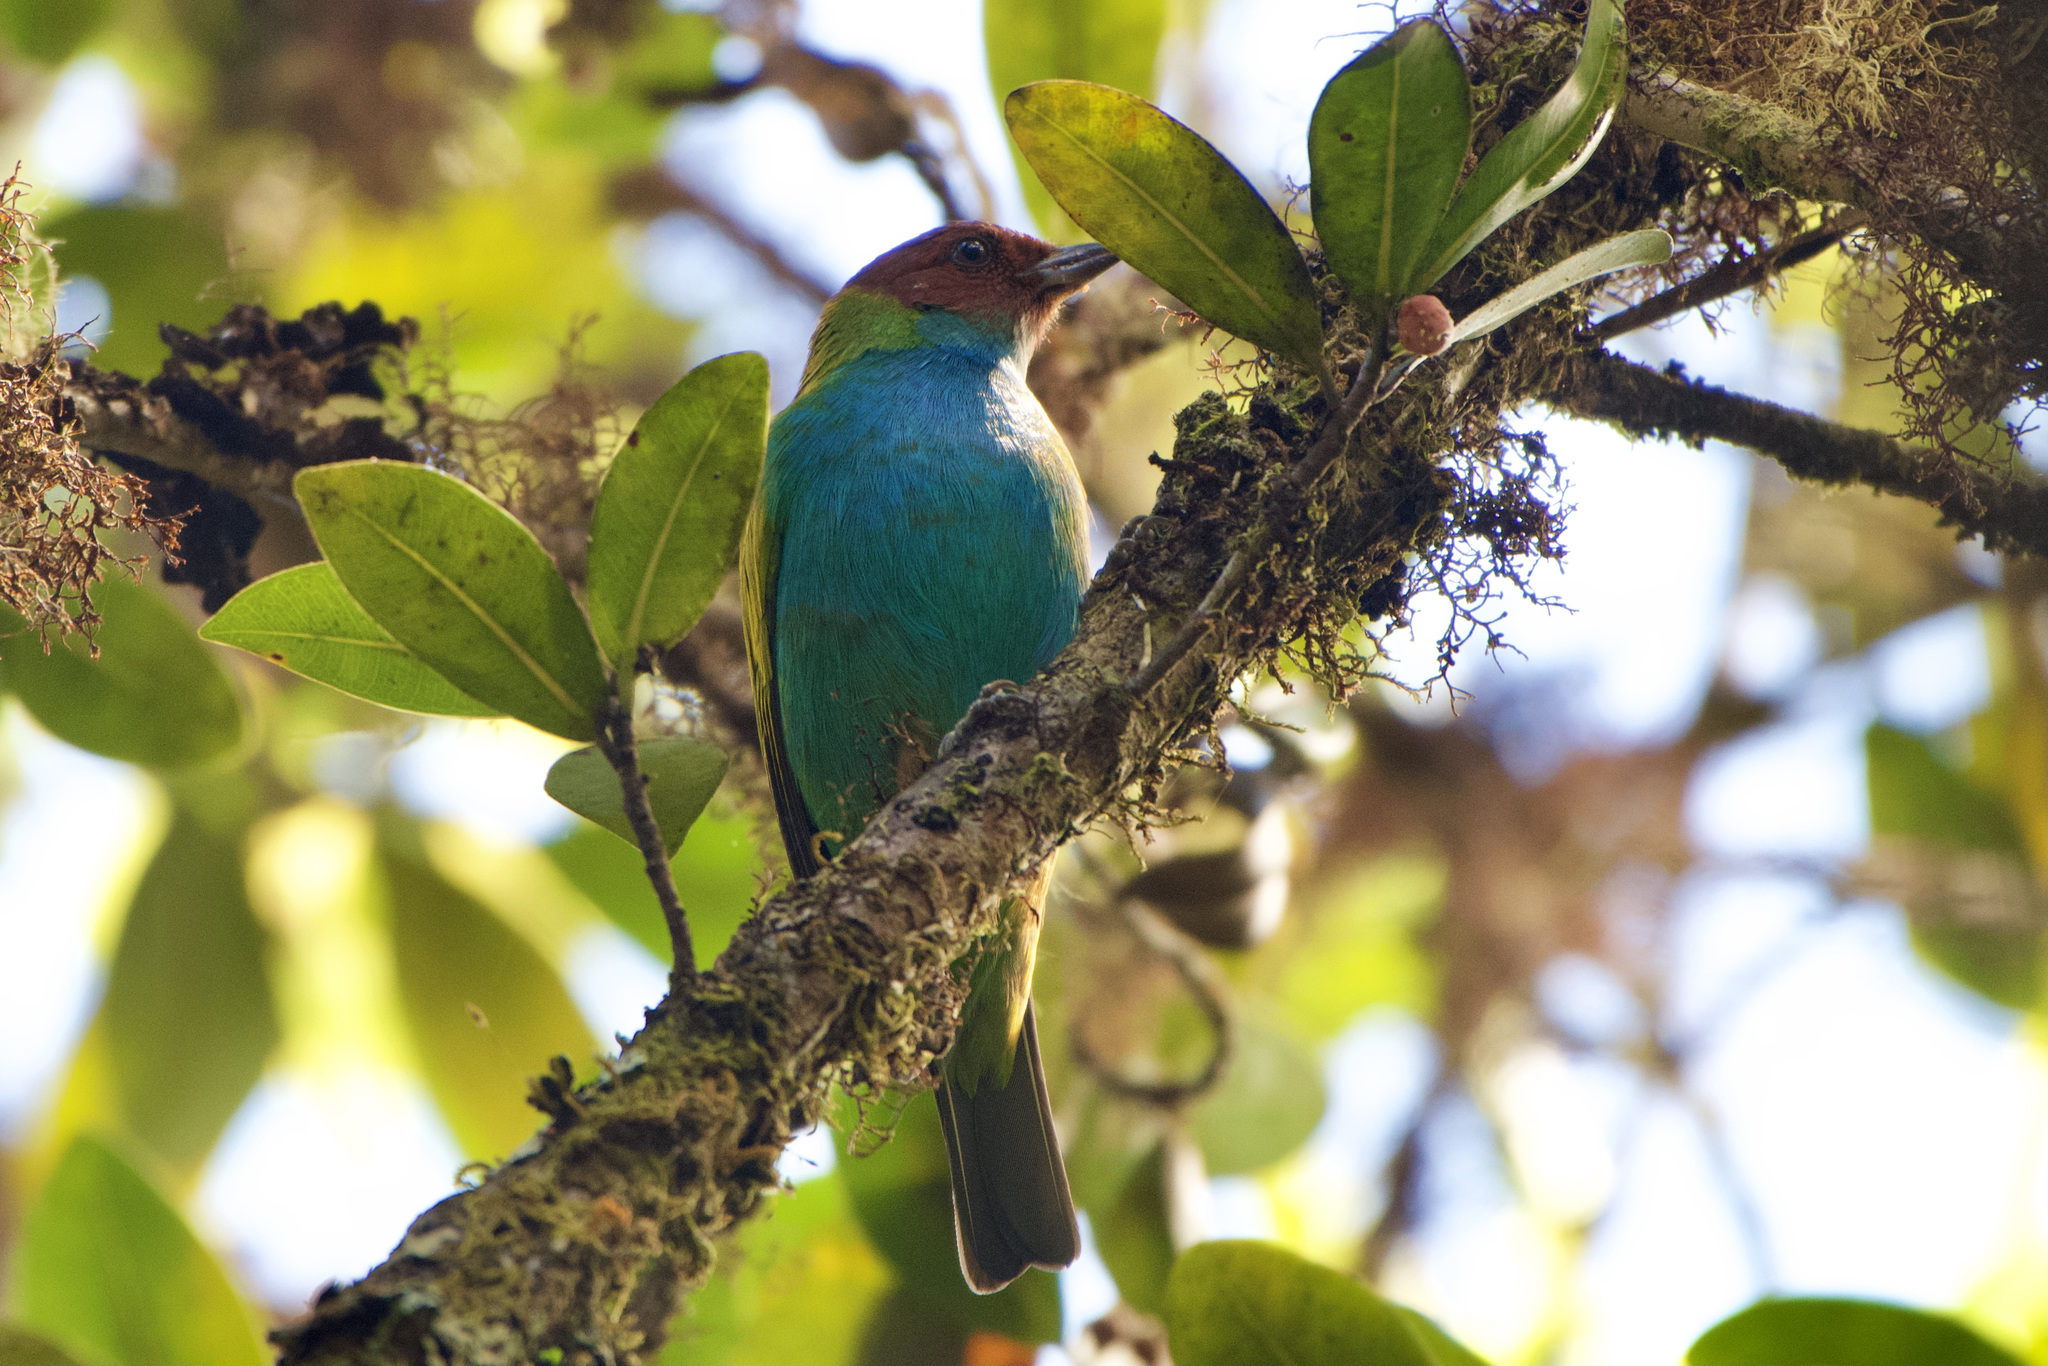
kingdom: Animalia
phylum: Chordata
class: Aves
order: Passeriformes
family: Thraupidae
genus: Tangara
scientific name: Tangara gyrola
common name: Bay-headed tanager
